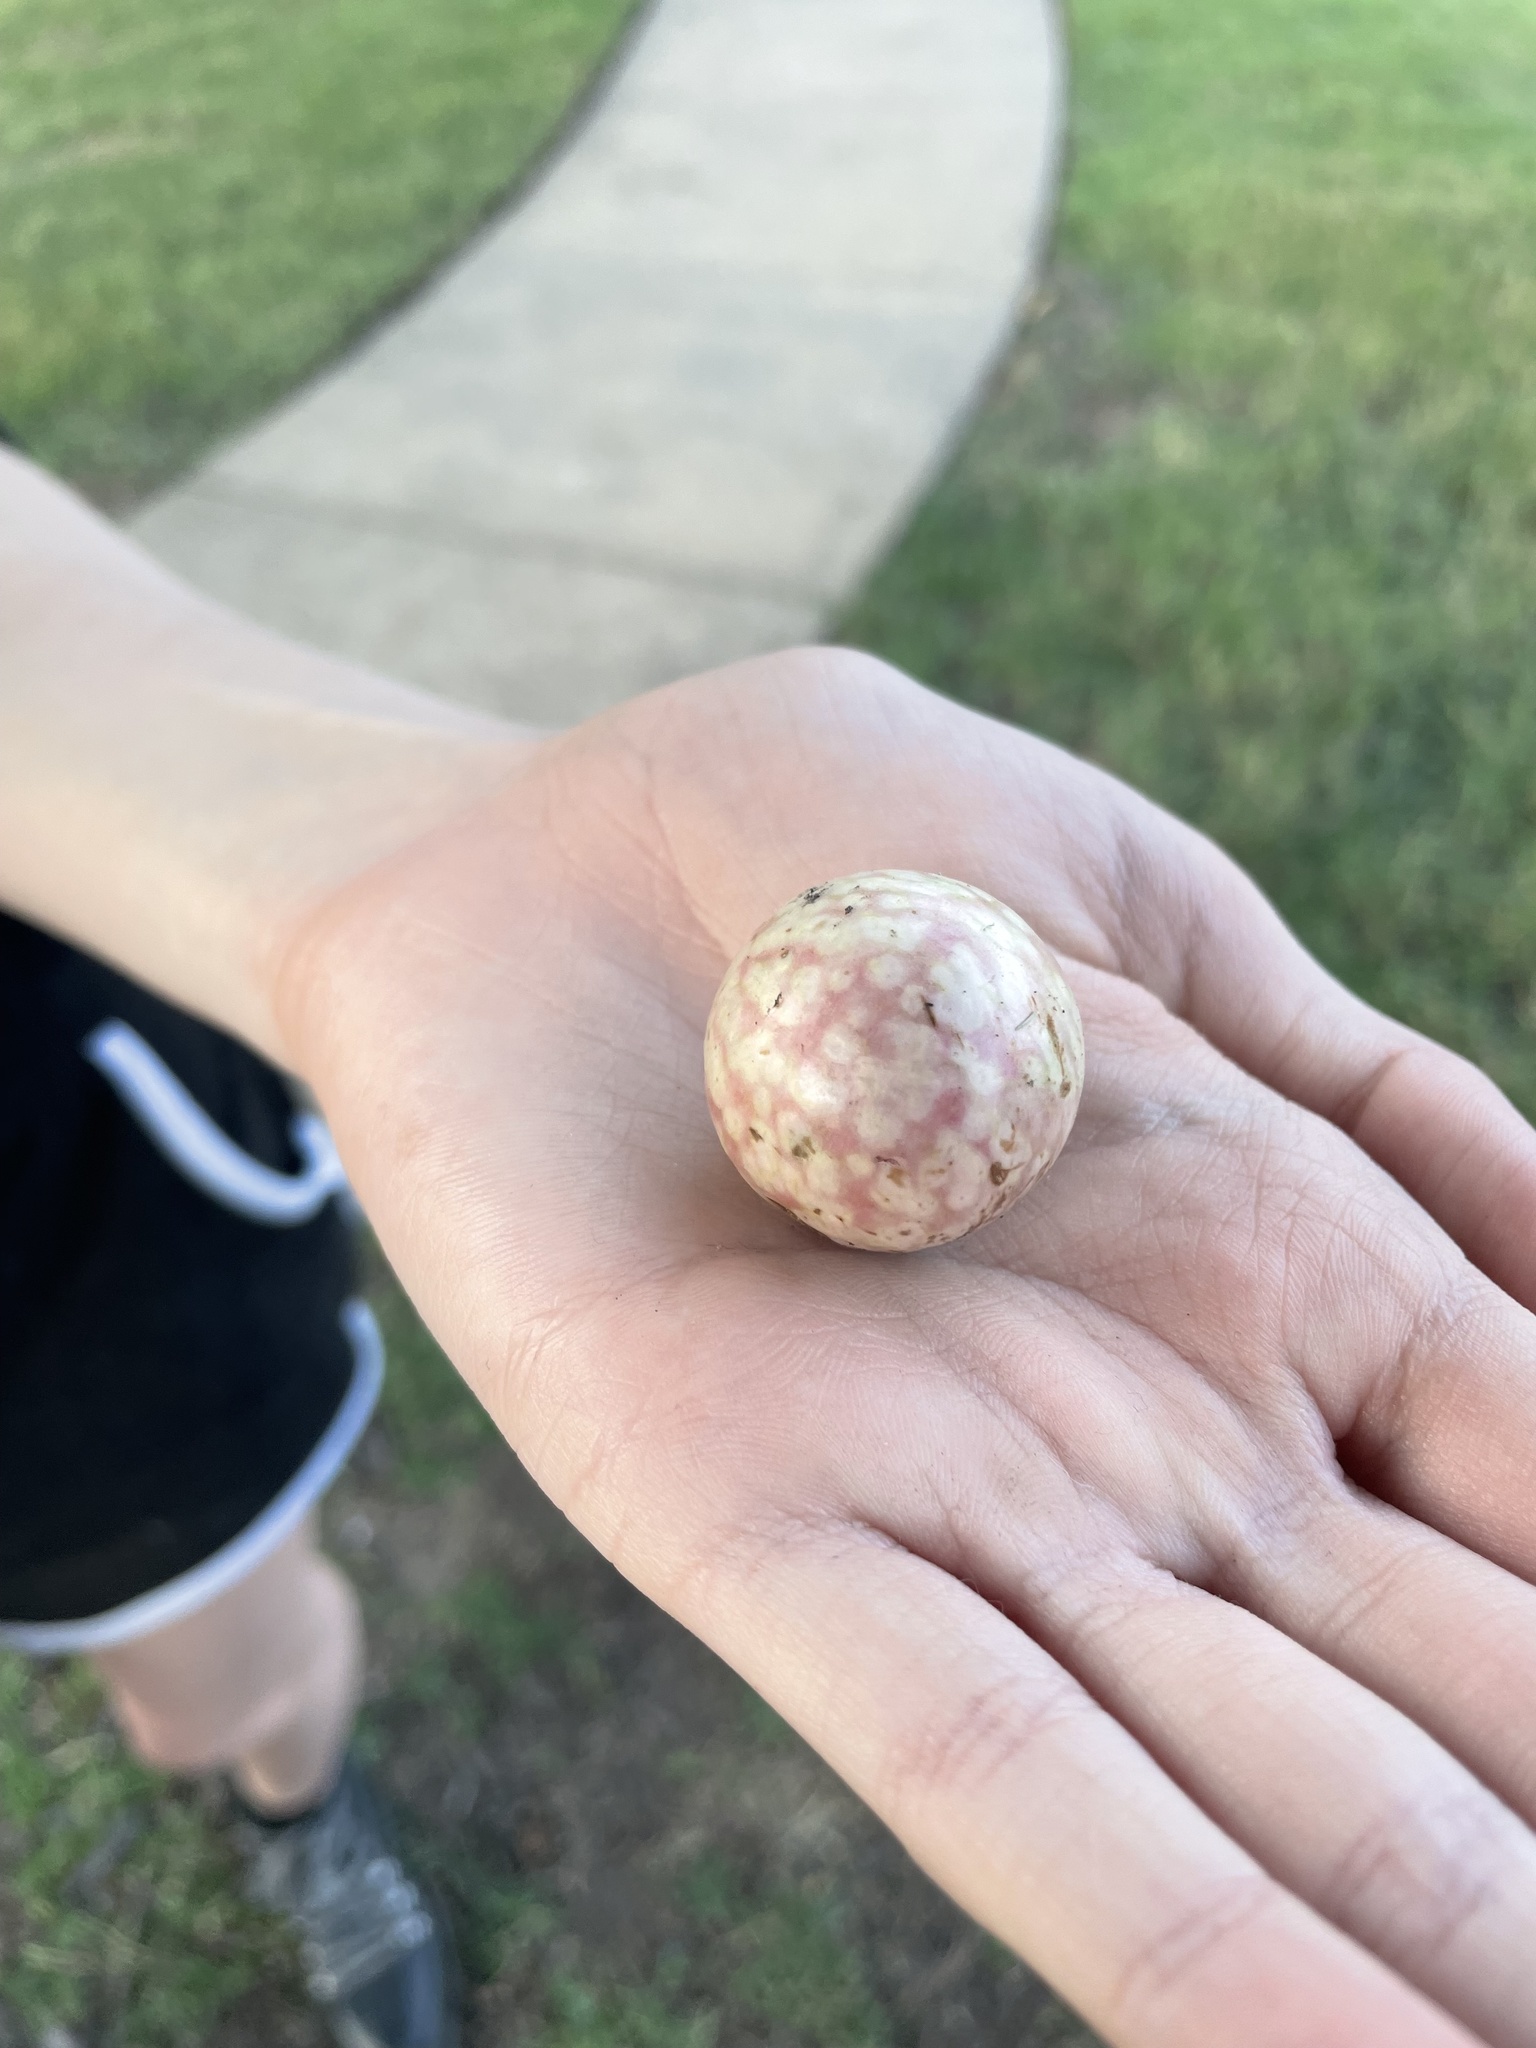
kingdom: Animalia
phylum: Arthropoda
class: Insecta
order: Hymenoptera
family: Cynipidae
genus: Amphibolips
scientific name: Amphibolips
